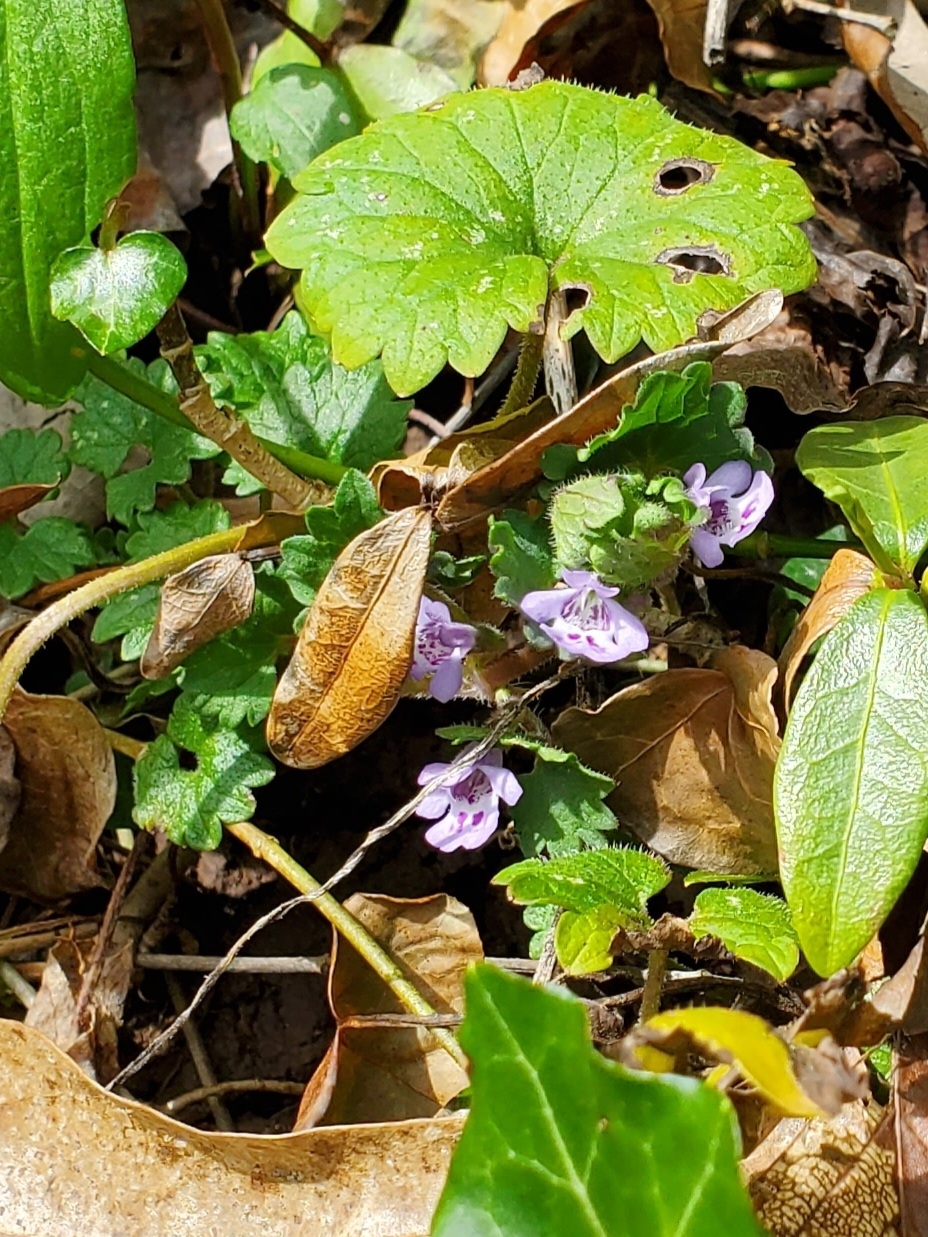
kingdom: Plantae
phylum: Tracheophyta
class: Magnoliopsida
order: Lamiales
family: Lamiaceae
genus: Glechoma
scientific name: Glechoma hederacea
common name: Ground ivy
